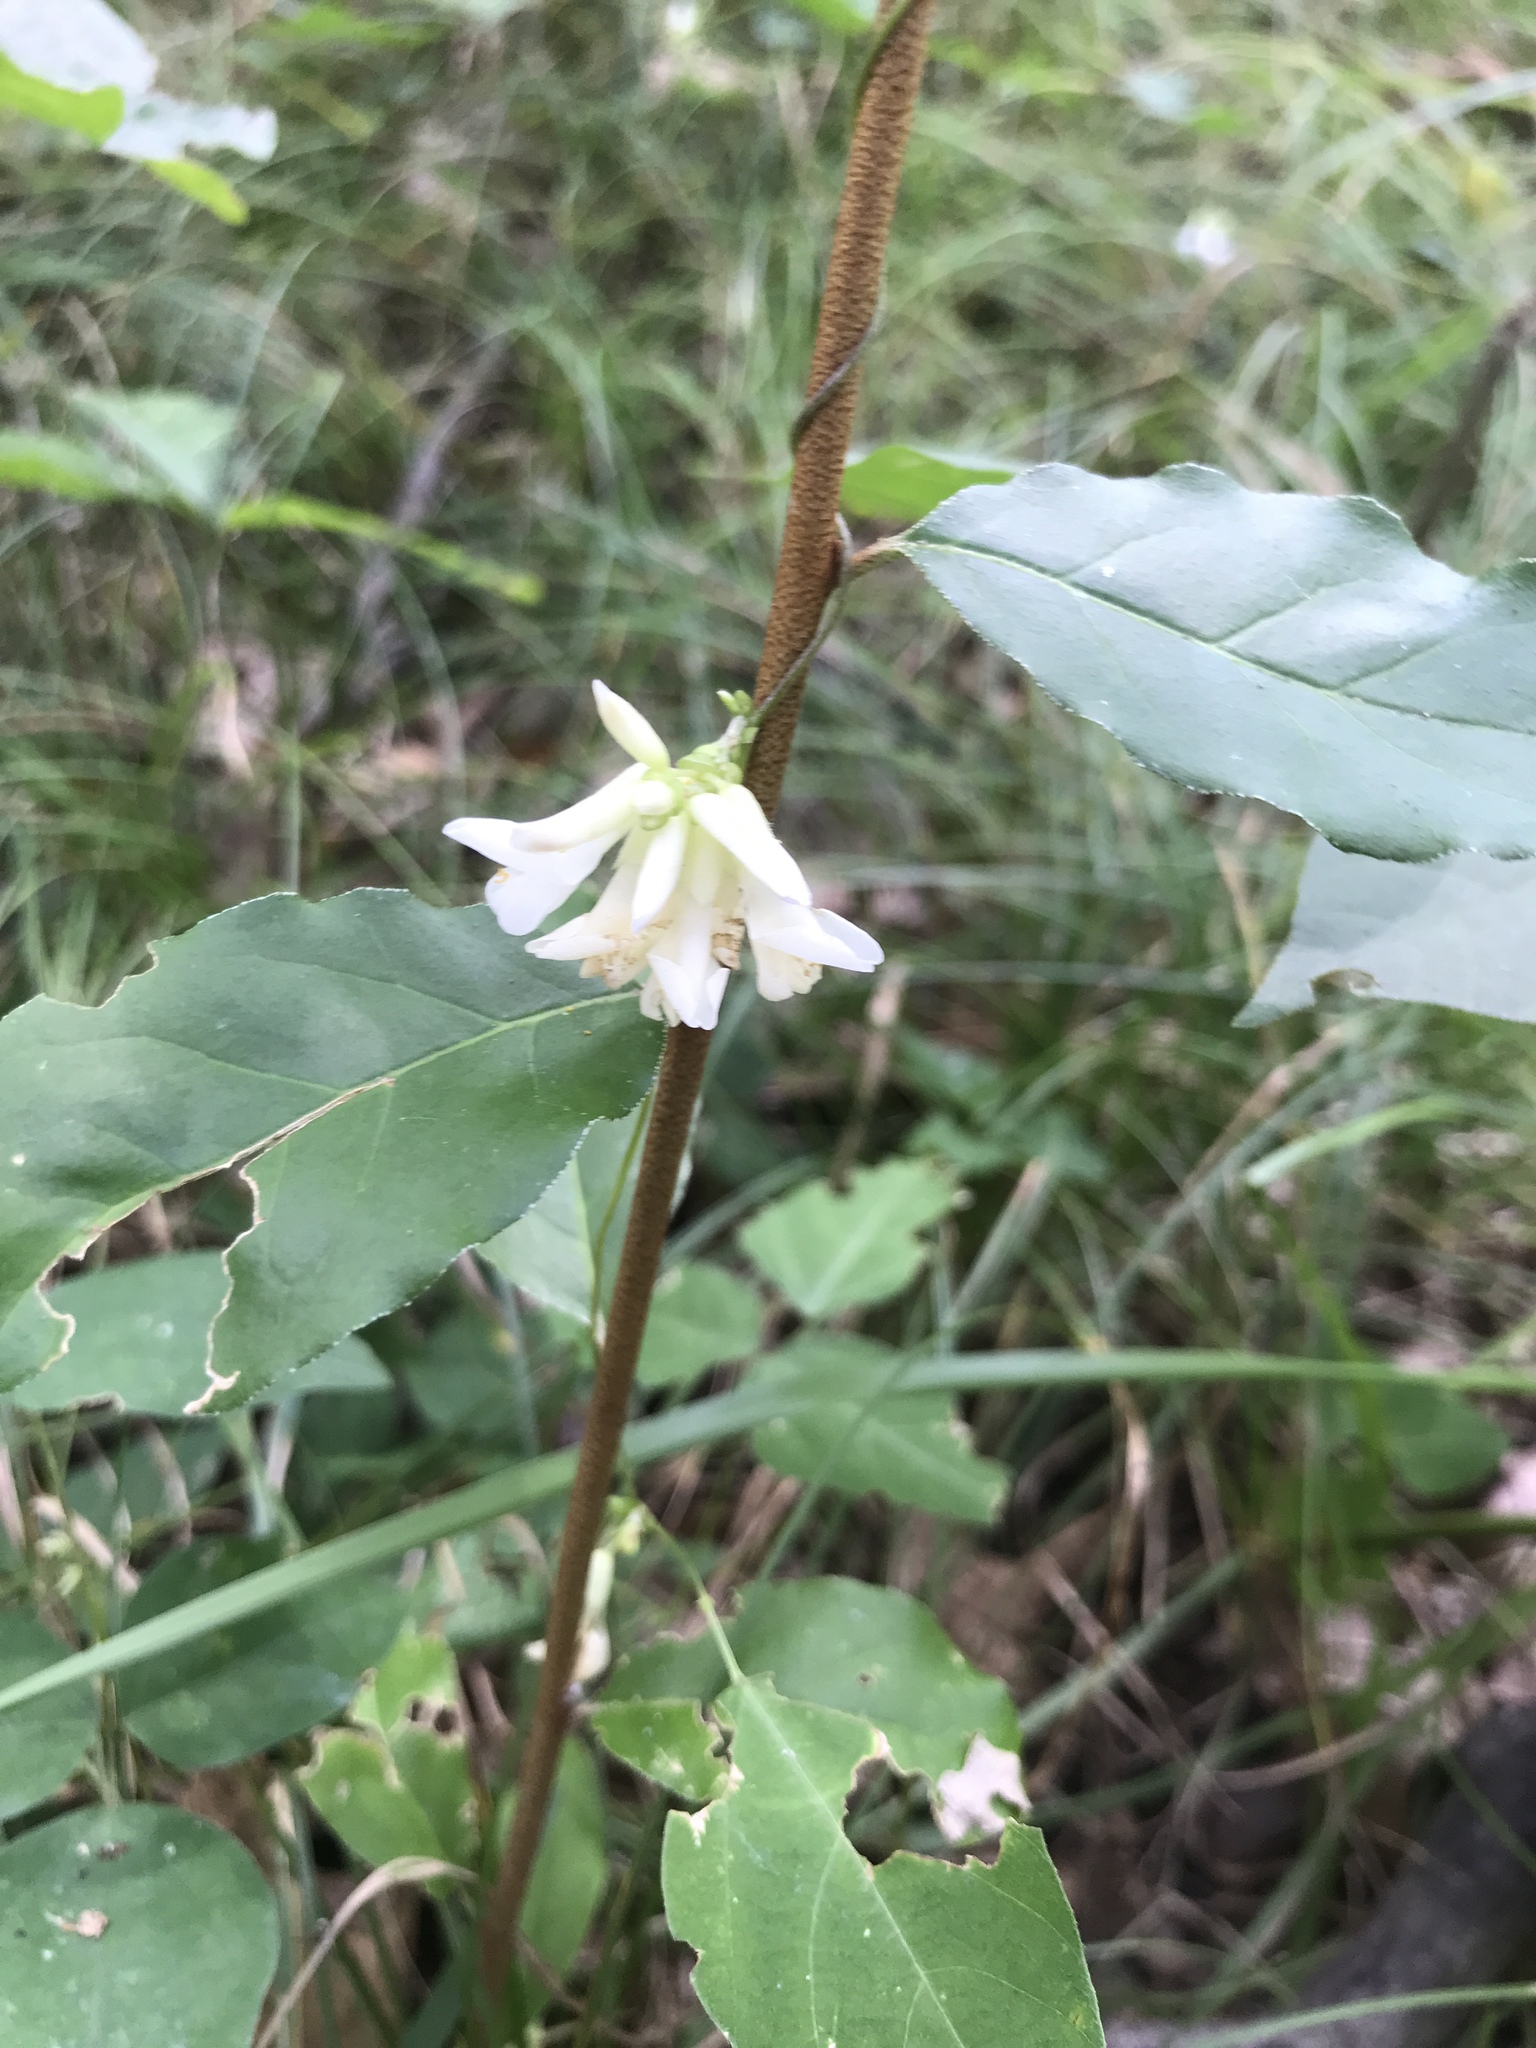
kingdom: Plantae
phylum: Tracheophyta
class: Magnoliopsida
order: Fabales
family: Fabaceae
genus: Amphicarpaea
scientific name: Amphicarpaea bracteata
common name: American hog peanut
